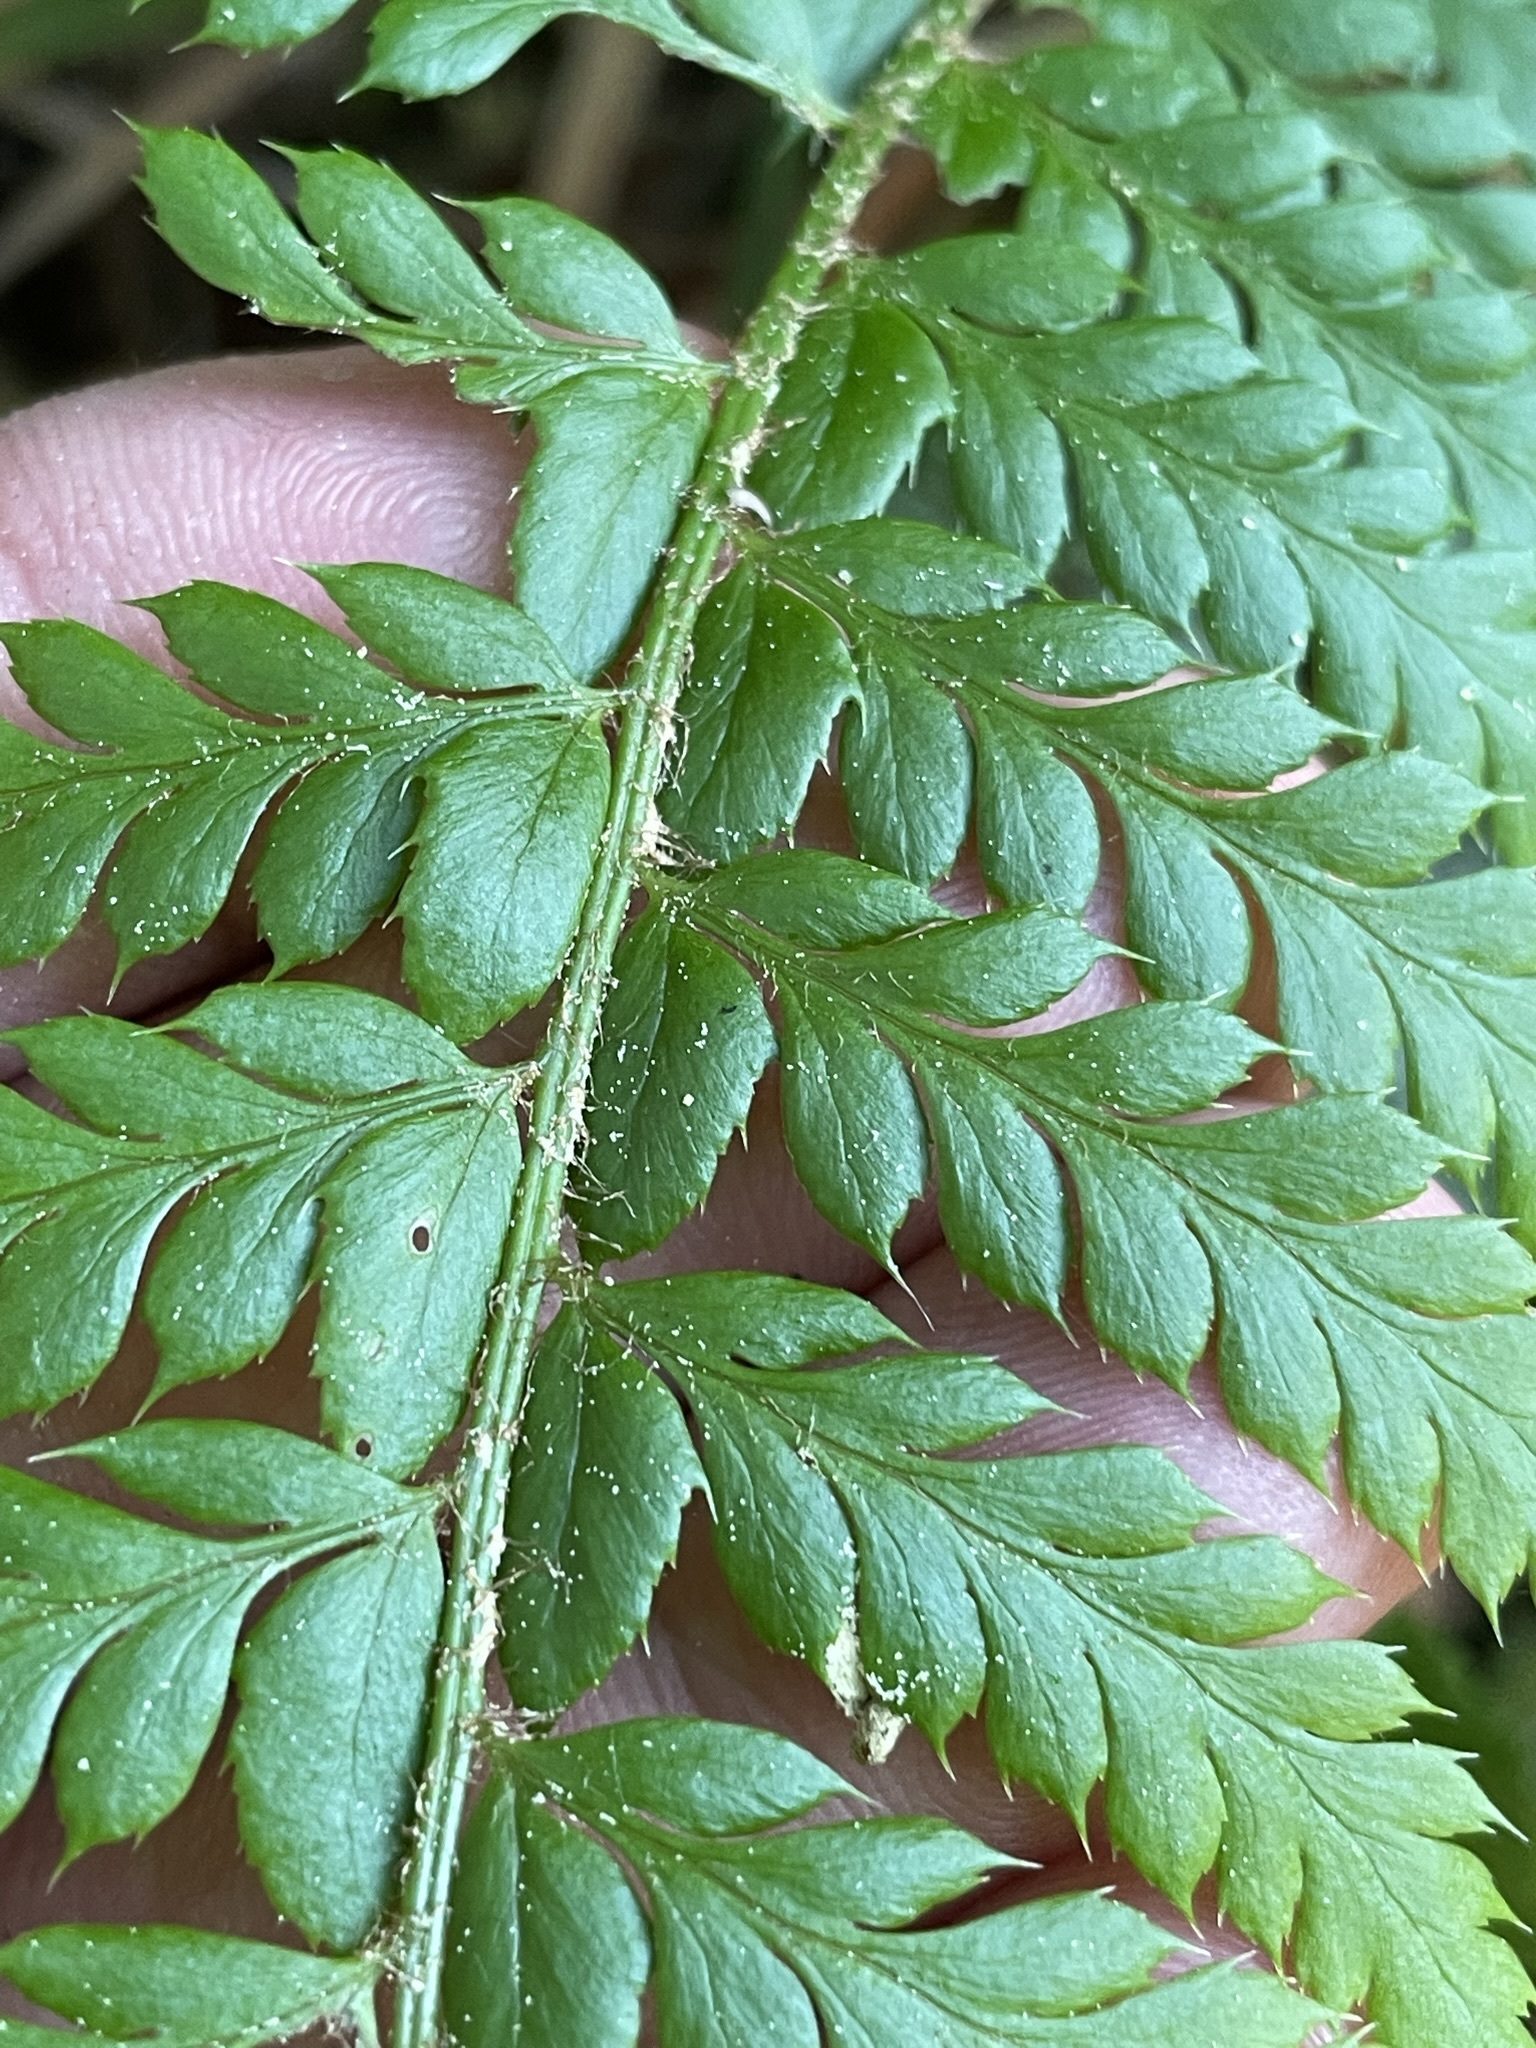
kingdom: Plantae
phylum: Tracheophyta
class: Polypodiopsida
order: Polypodiales
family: Dryopteridaceae
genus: Polystichum
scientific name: Polystichum aculeatum
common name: Hard shield-fern
